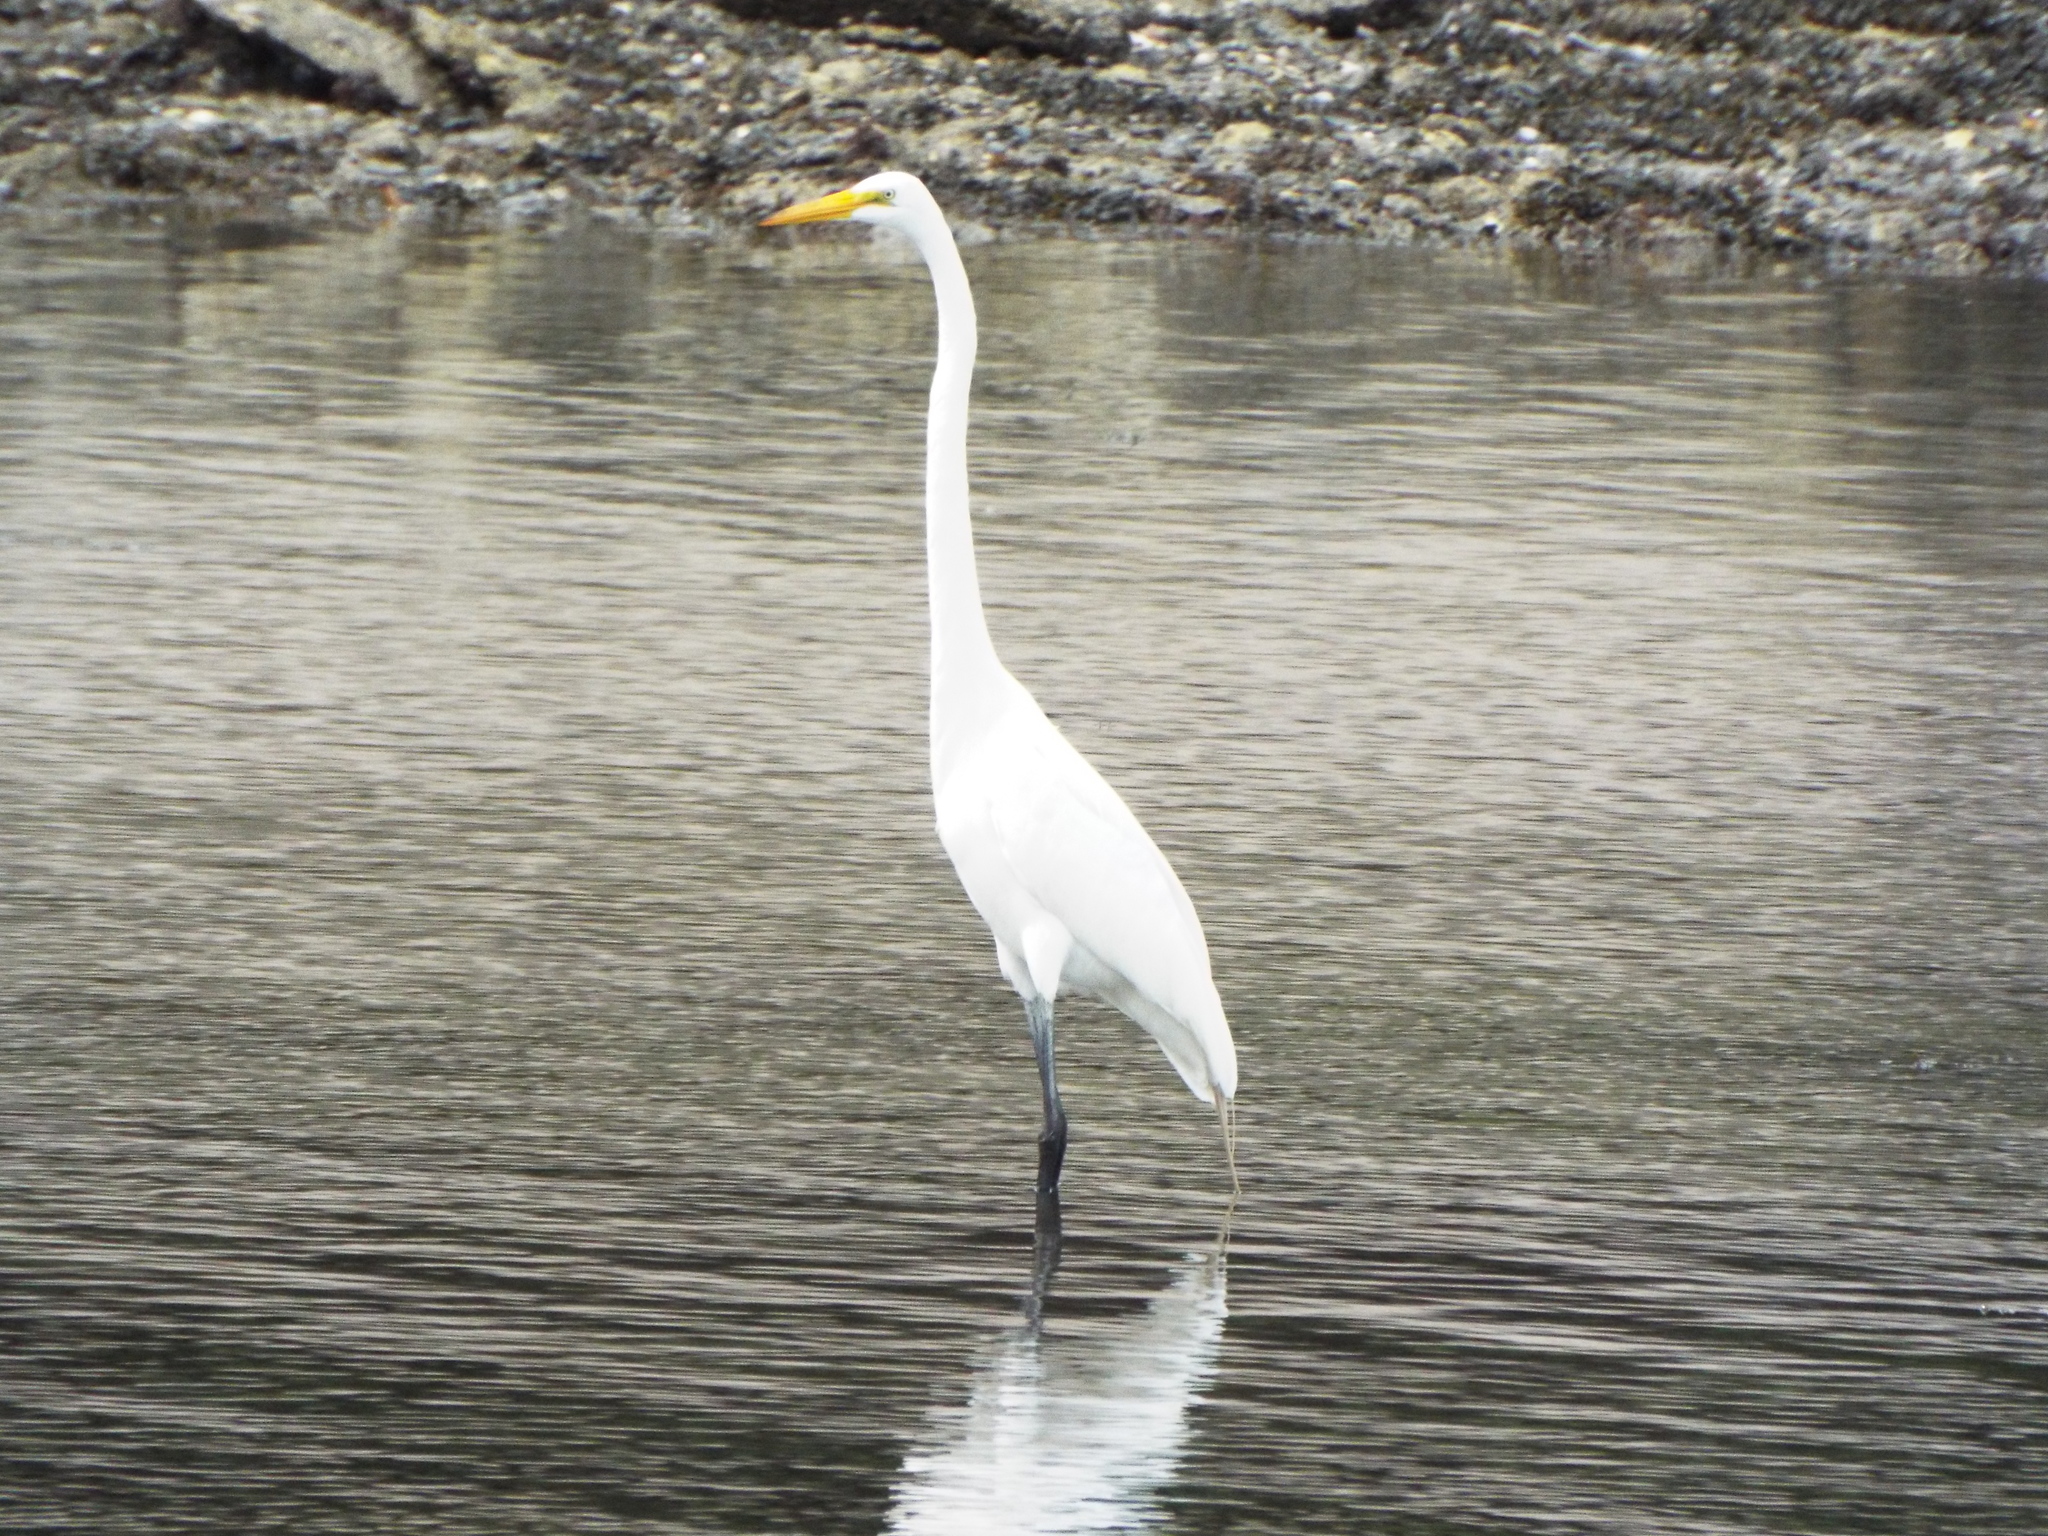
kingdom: Animalia
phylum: Chordata
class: Aves
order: Pelecaniformes
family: Ardeidae
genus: Ardea
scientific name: Ardea alba
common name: Great egret
